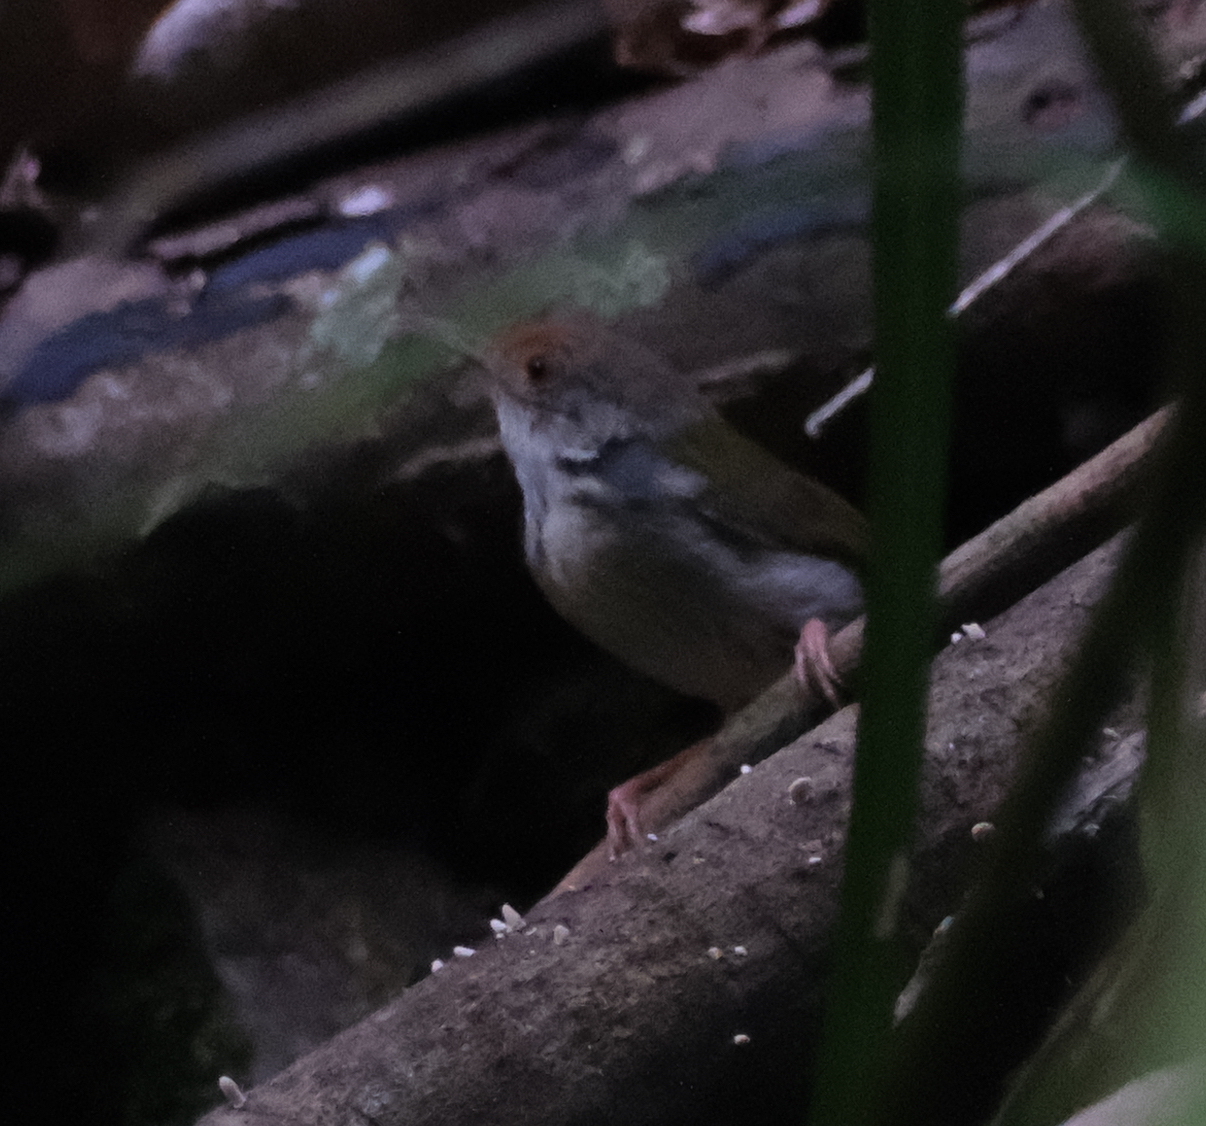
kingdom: Animalia
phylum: Chordata
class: Aves
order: Passeriformes
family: Cisticolidae
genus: Orthotomus
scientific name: Orthotomus sutorius
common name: Common tailorbird
